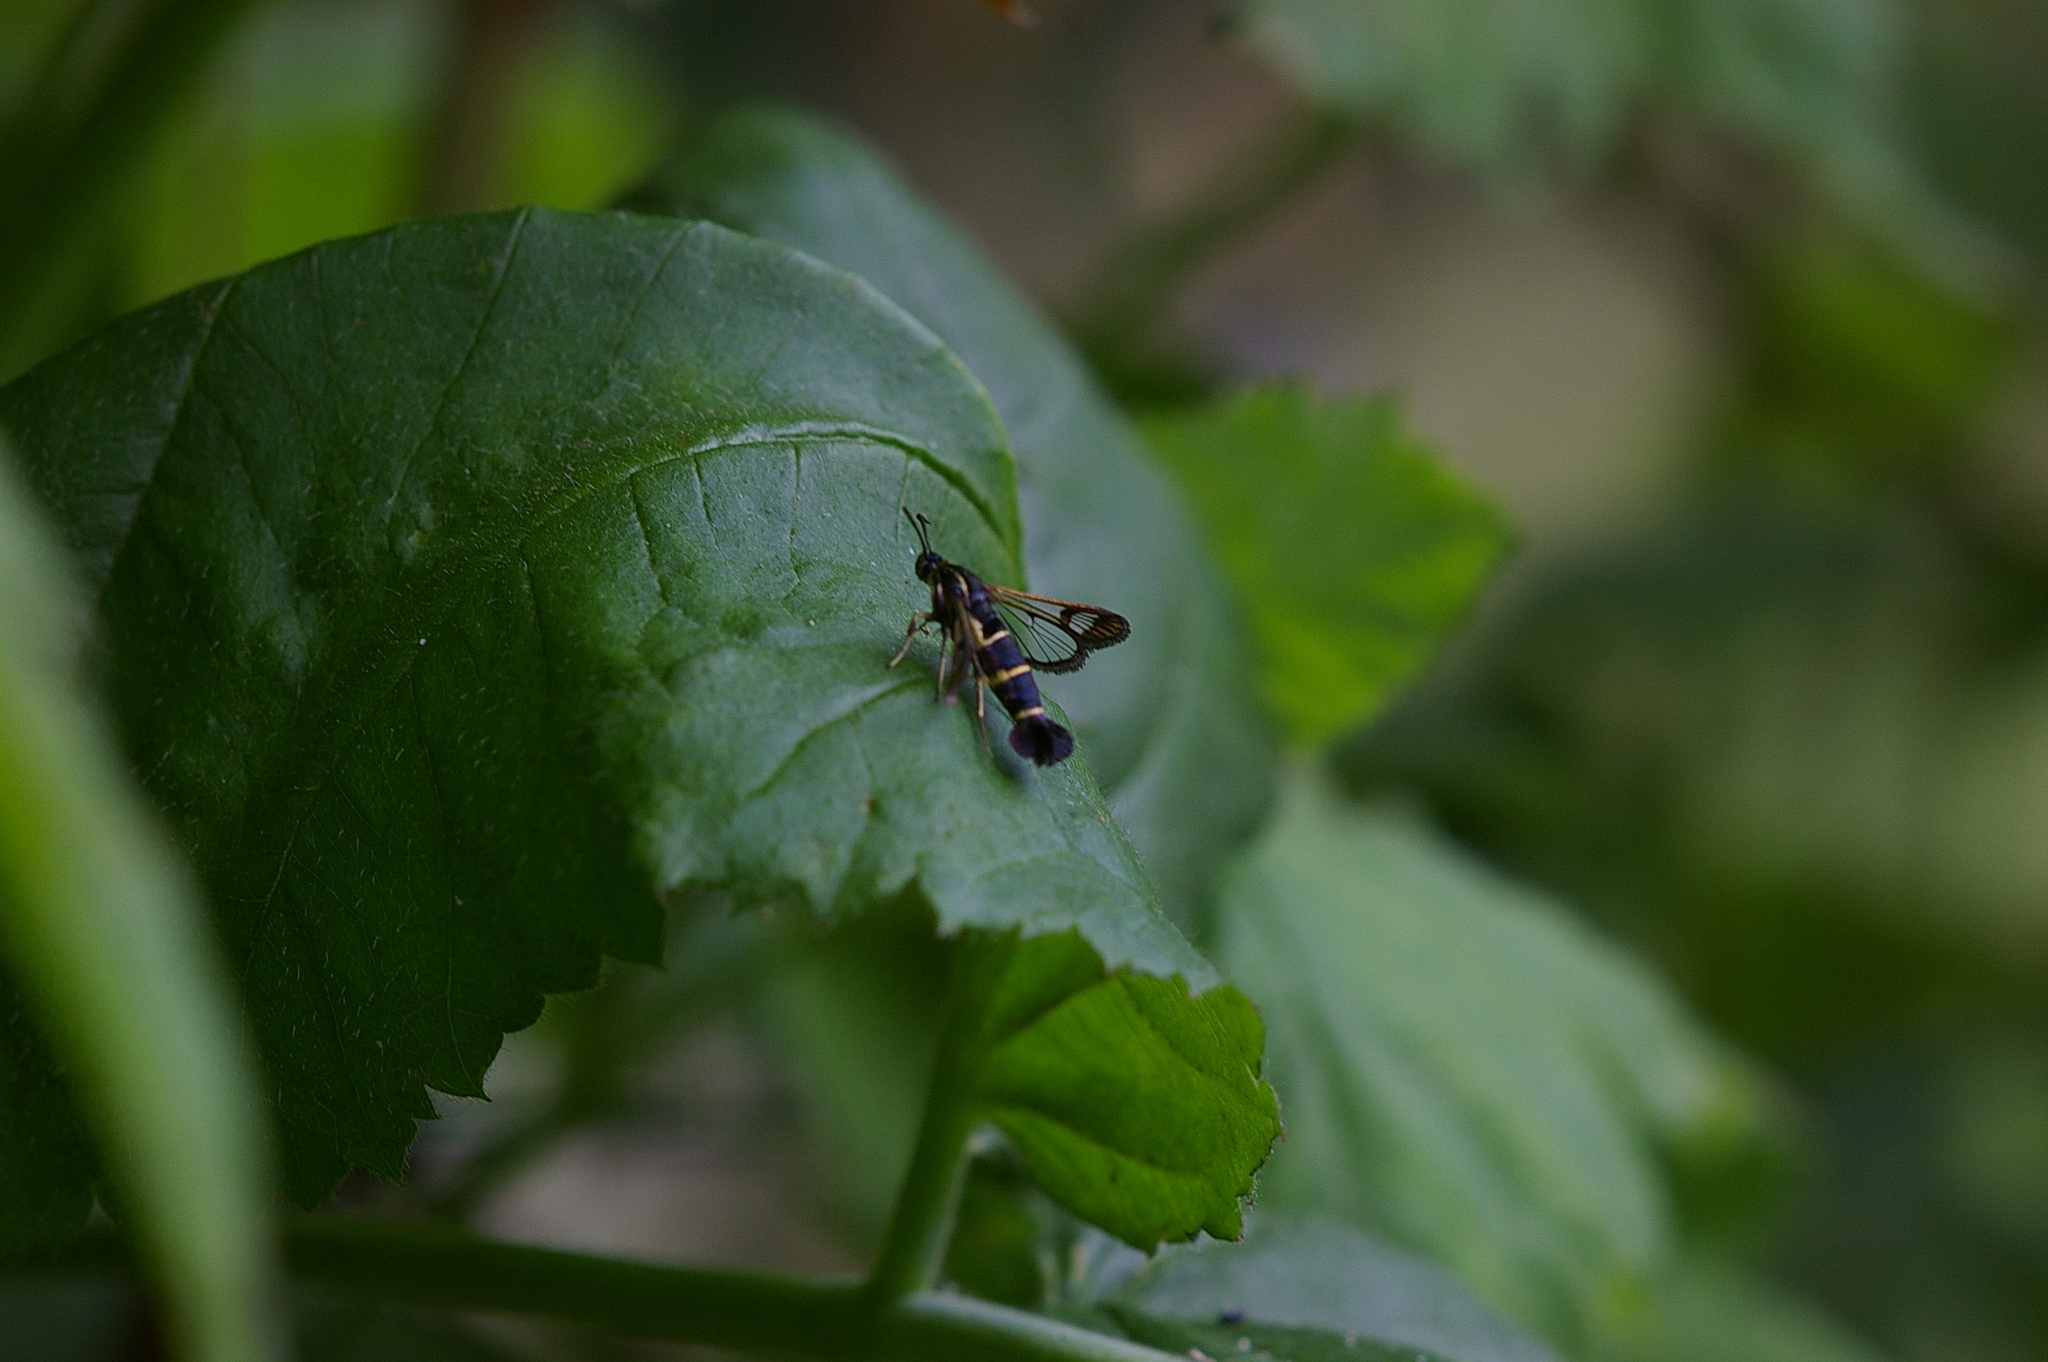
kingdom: Animalia
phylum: Arthropoda
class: Insecta
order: Lepidoptera
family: Sesiidae
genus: Synanthedon
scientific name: Synanthedon tipuliformis
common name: Currant clearwing
